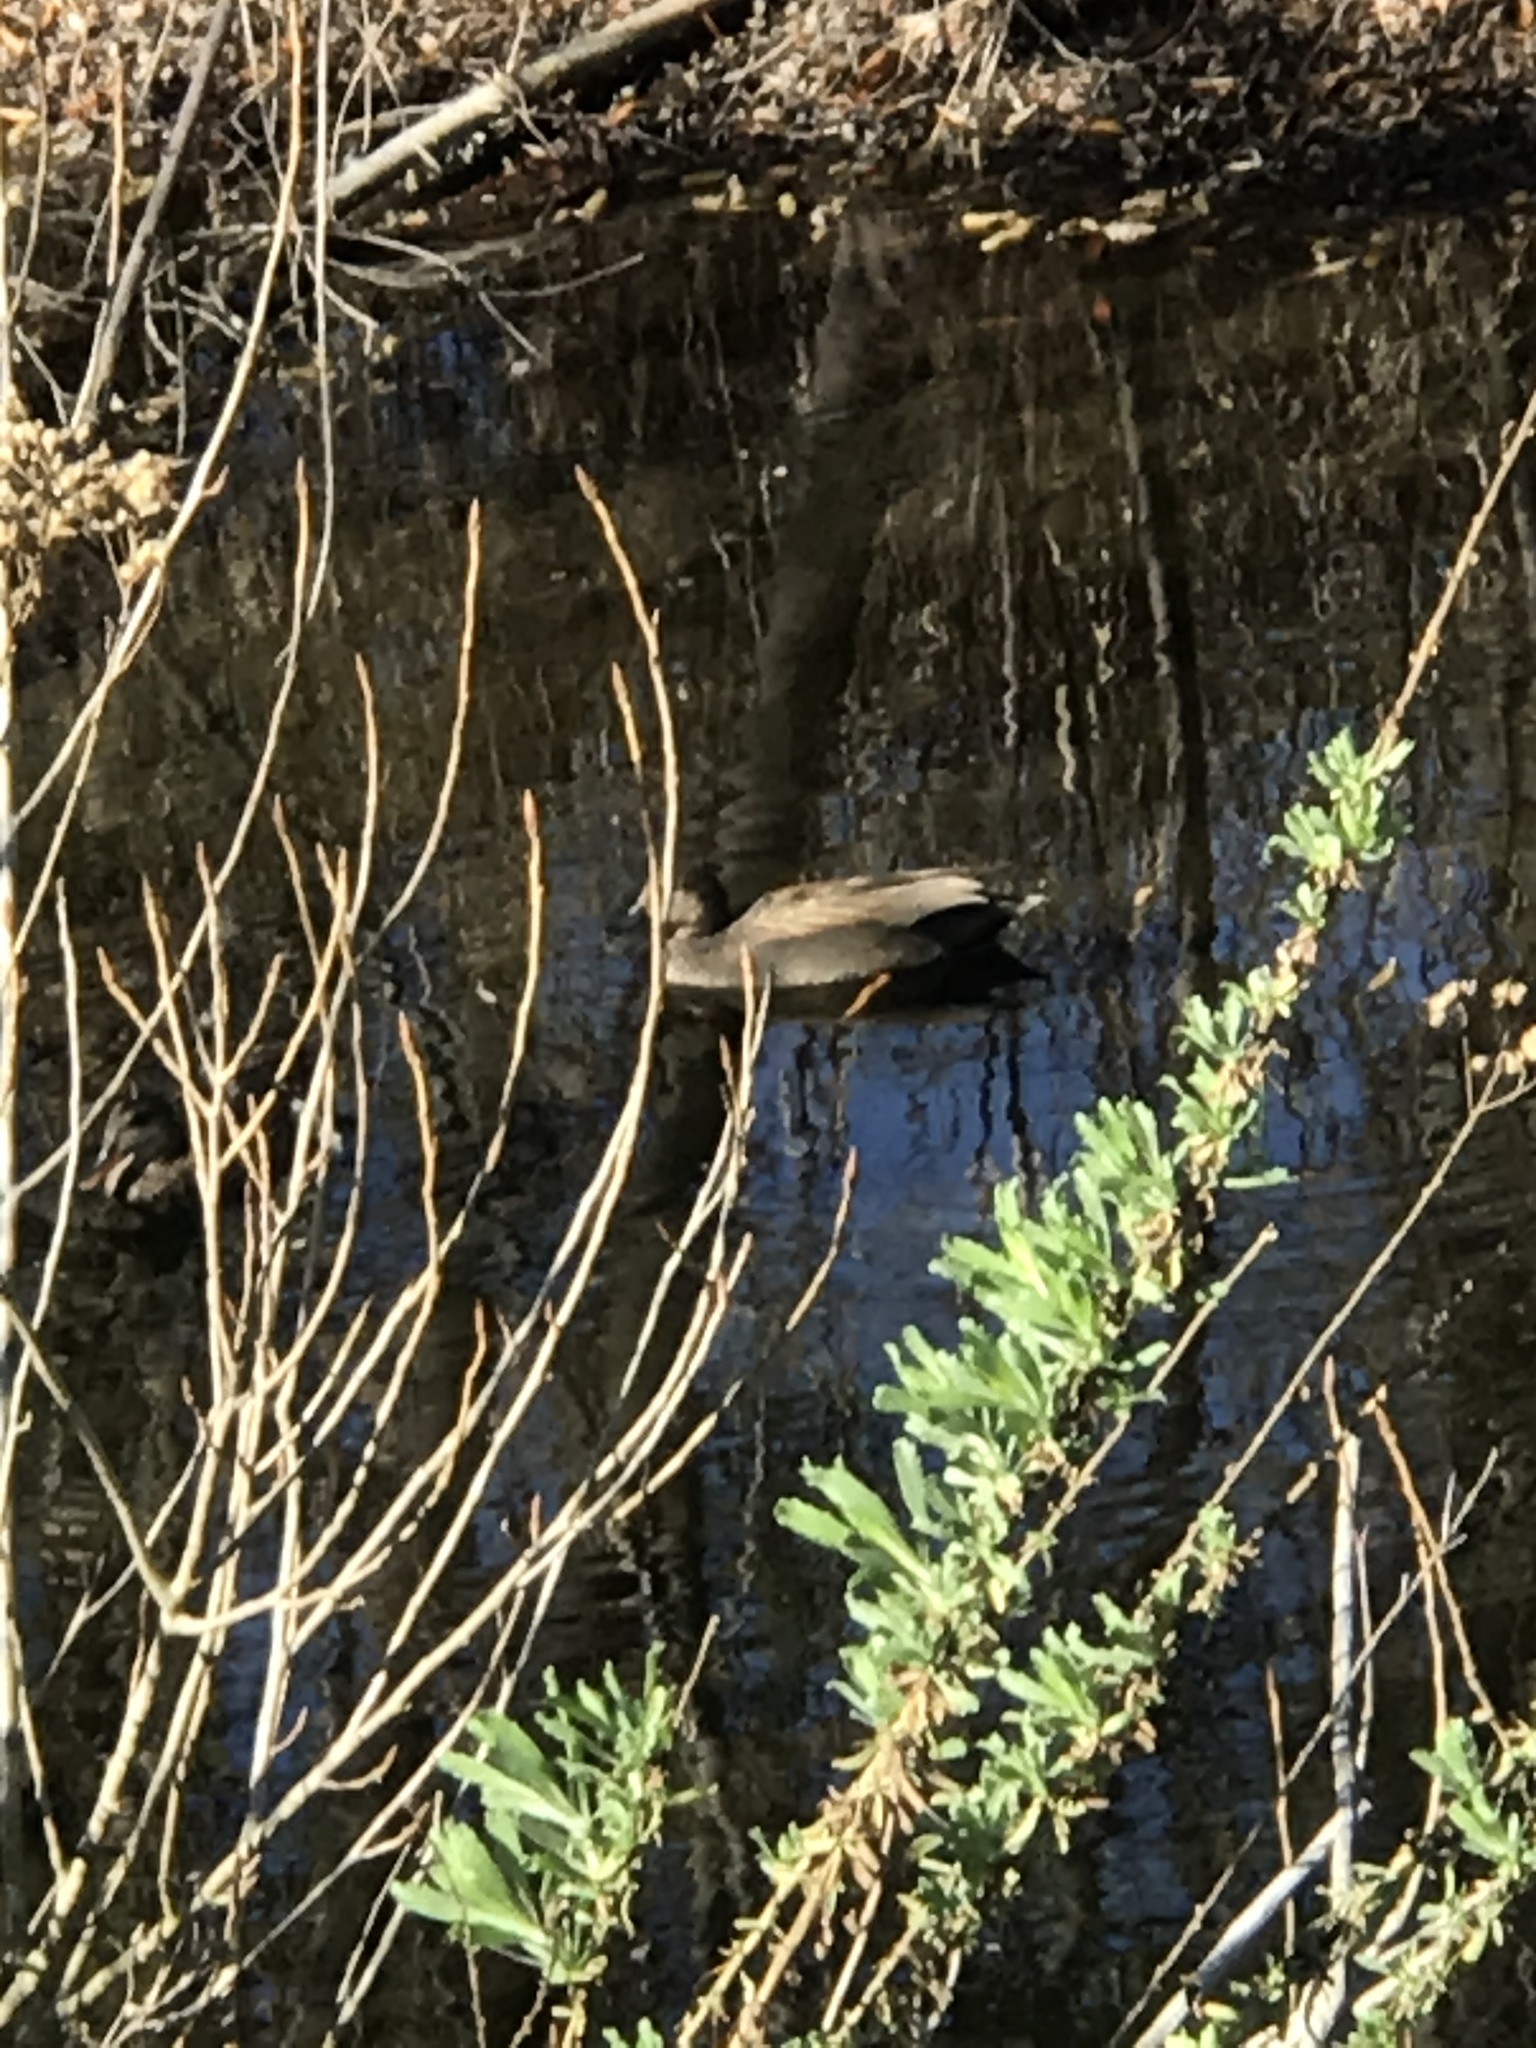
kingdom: Animalia
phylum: Chordata
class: Aves
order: Anseriformes
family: Anatidae
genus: Mareca
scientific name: Mareca strepera
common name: Gadwall
